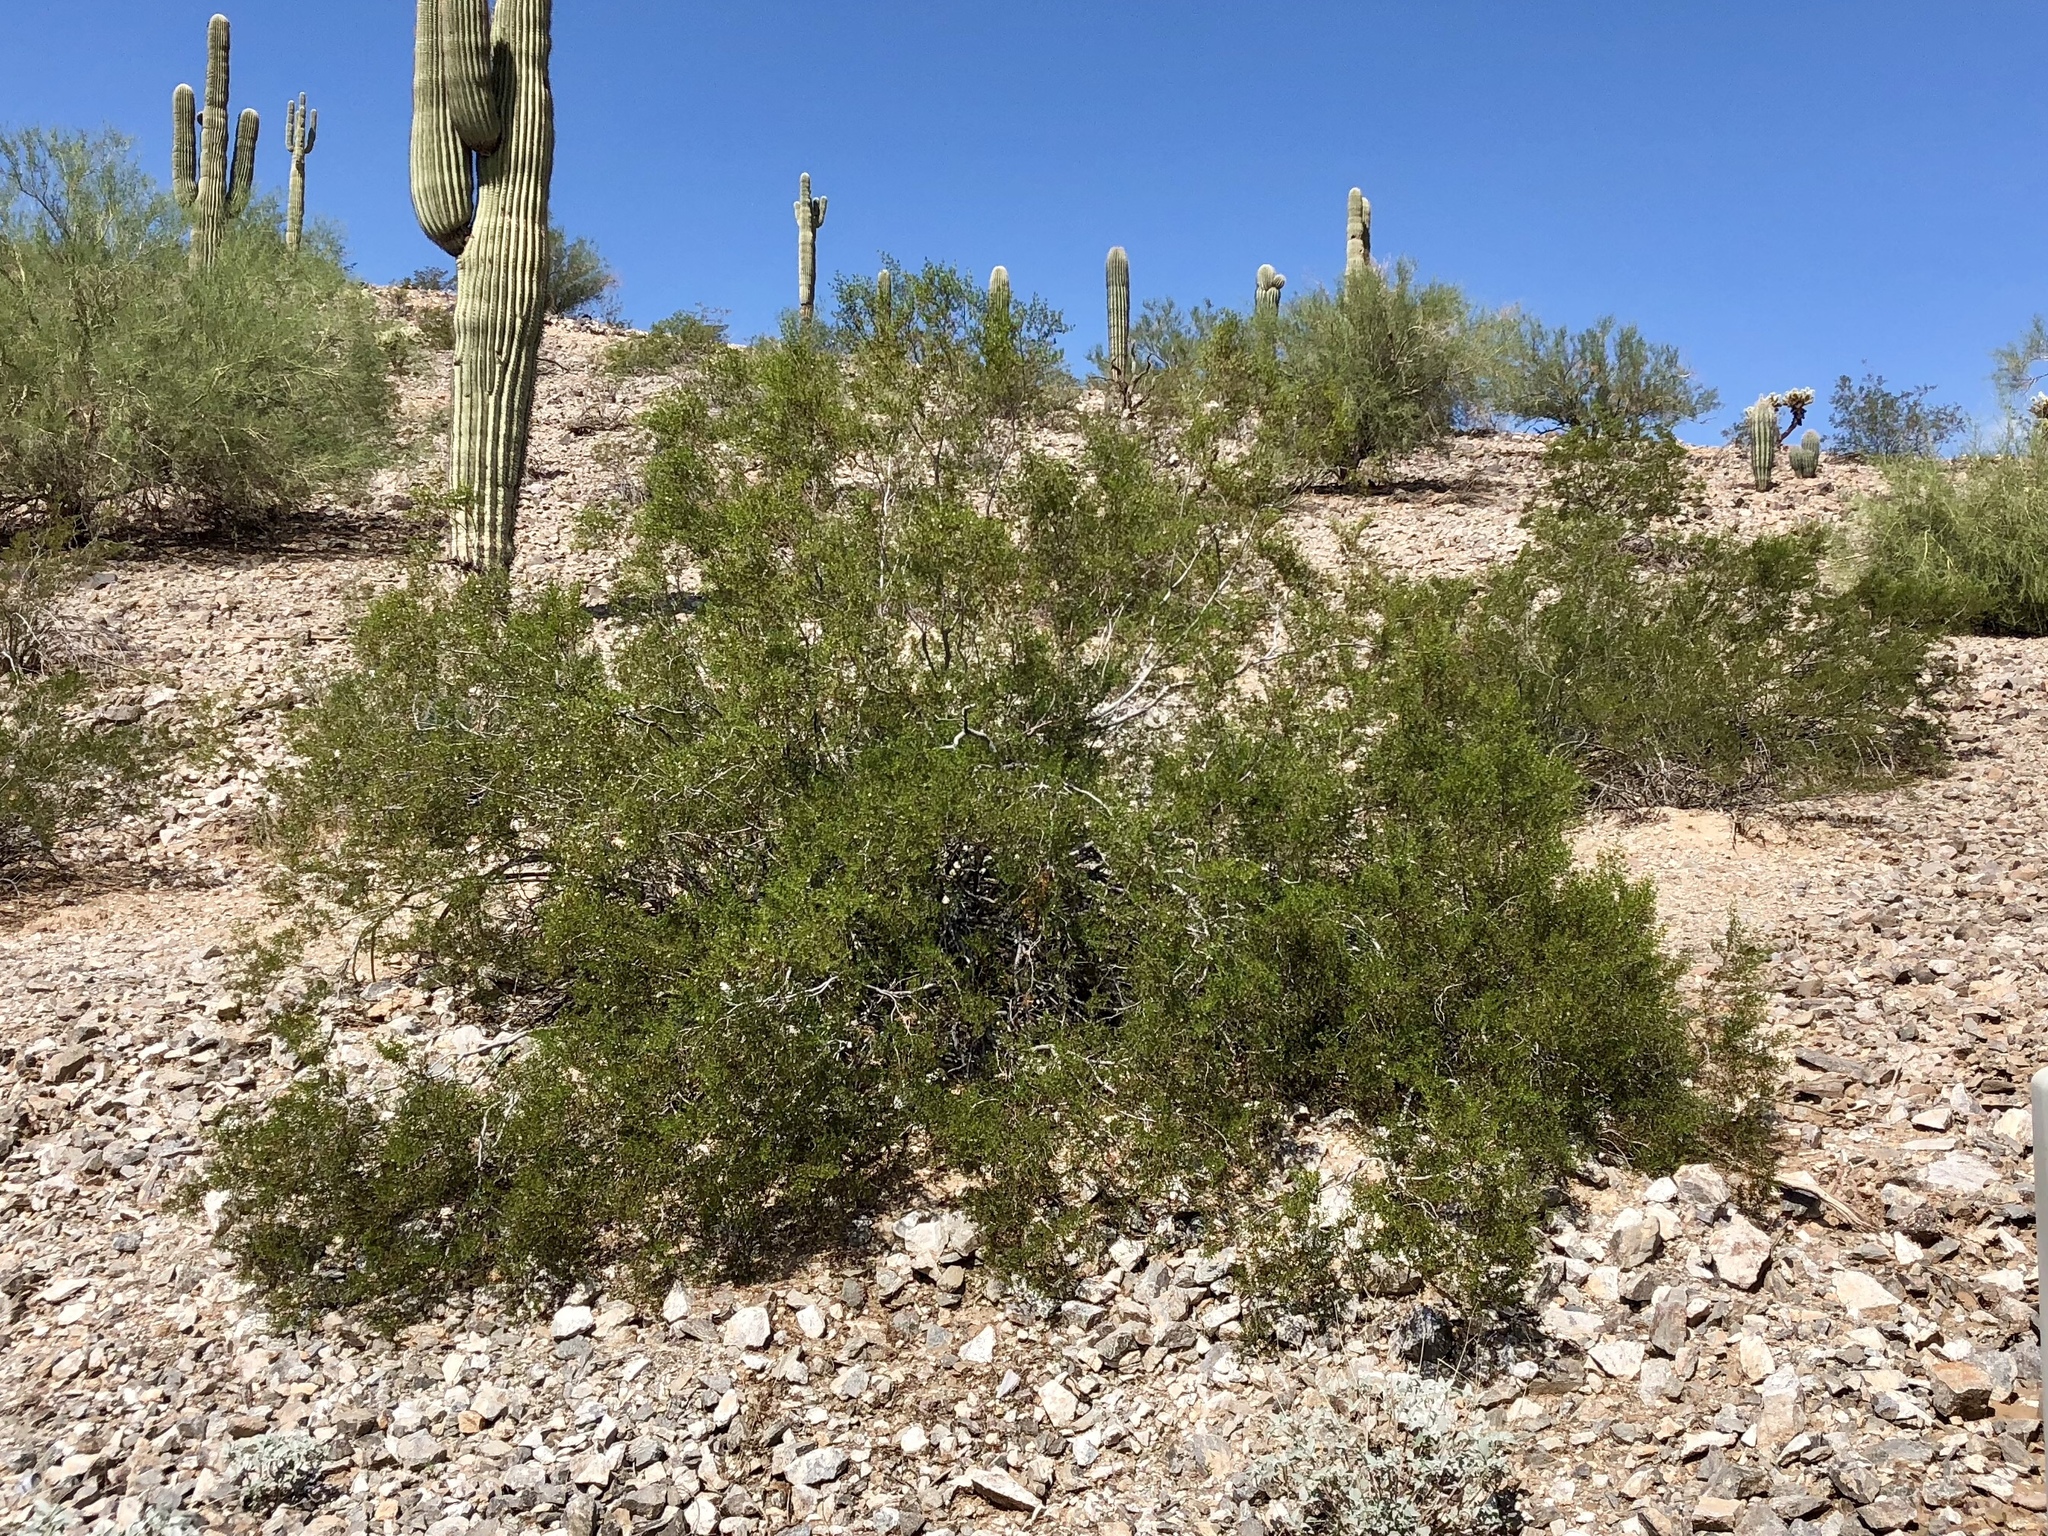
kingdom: Plantae
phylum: Tracheophyta
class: Magnoliopsida
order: Zygophyllales
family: Zygophyllaceae
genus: Larrea
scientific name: Larrea tridentata
